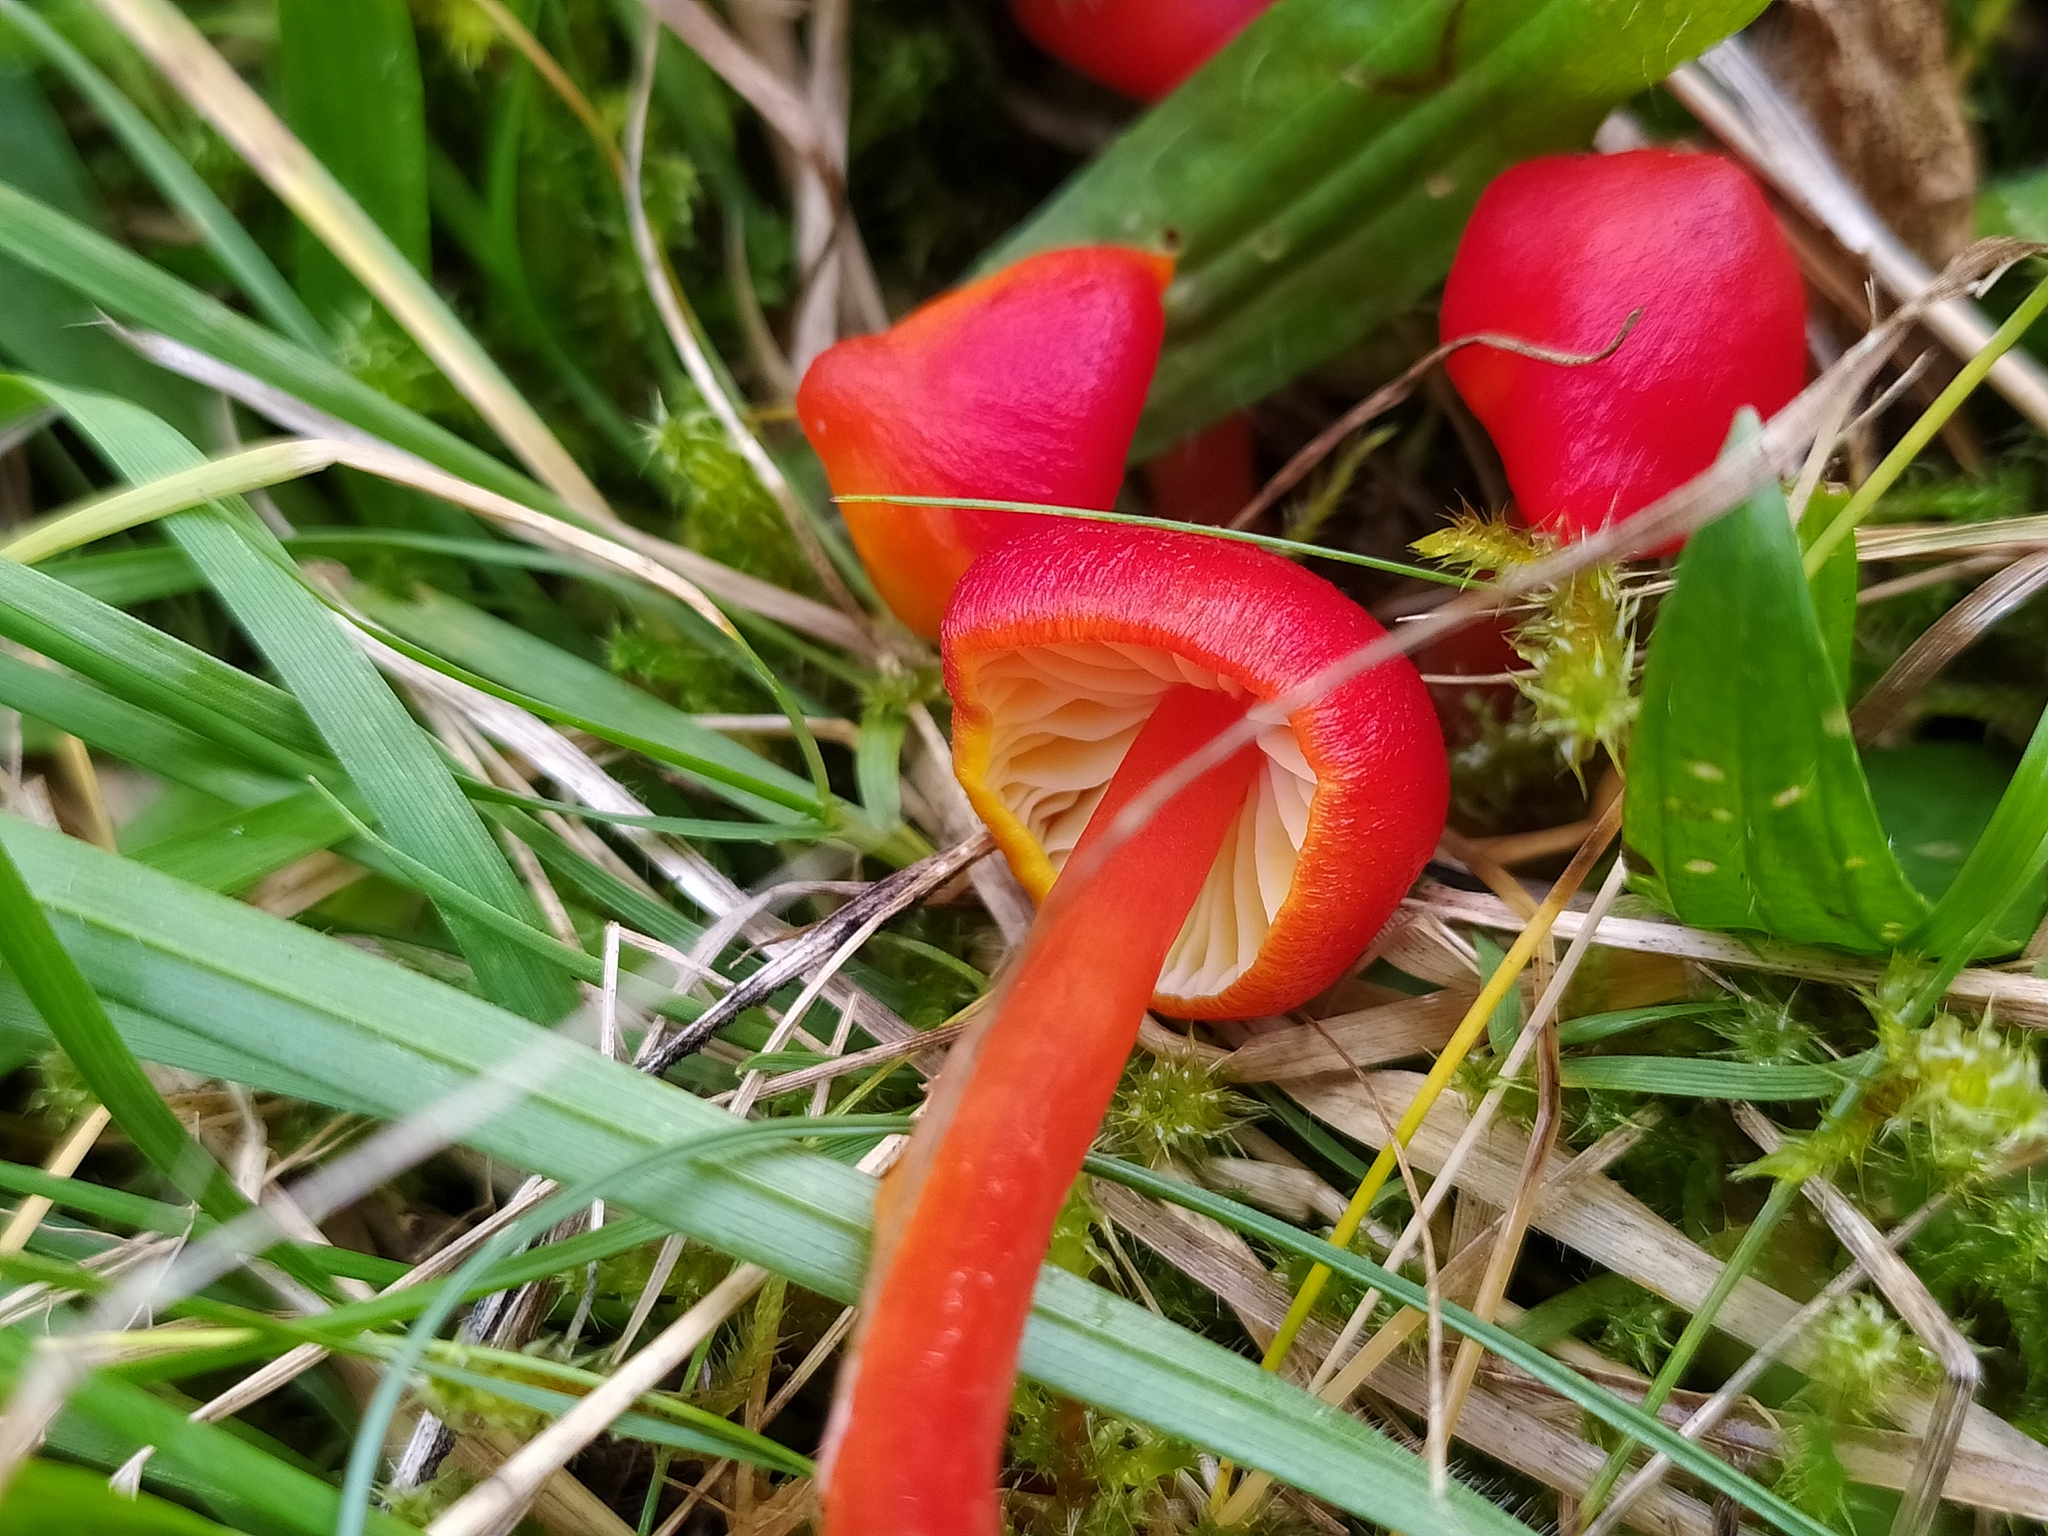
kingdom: Fungi
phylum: Basidiomycota
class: Agaricomycetes
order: Agaricales
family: Hygrophoraceae
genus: Hygrocybe
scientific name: Hygrocybe coccinea
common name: Scarlet hood
